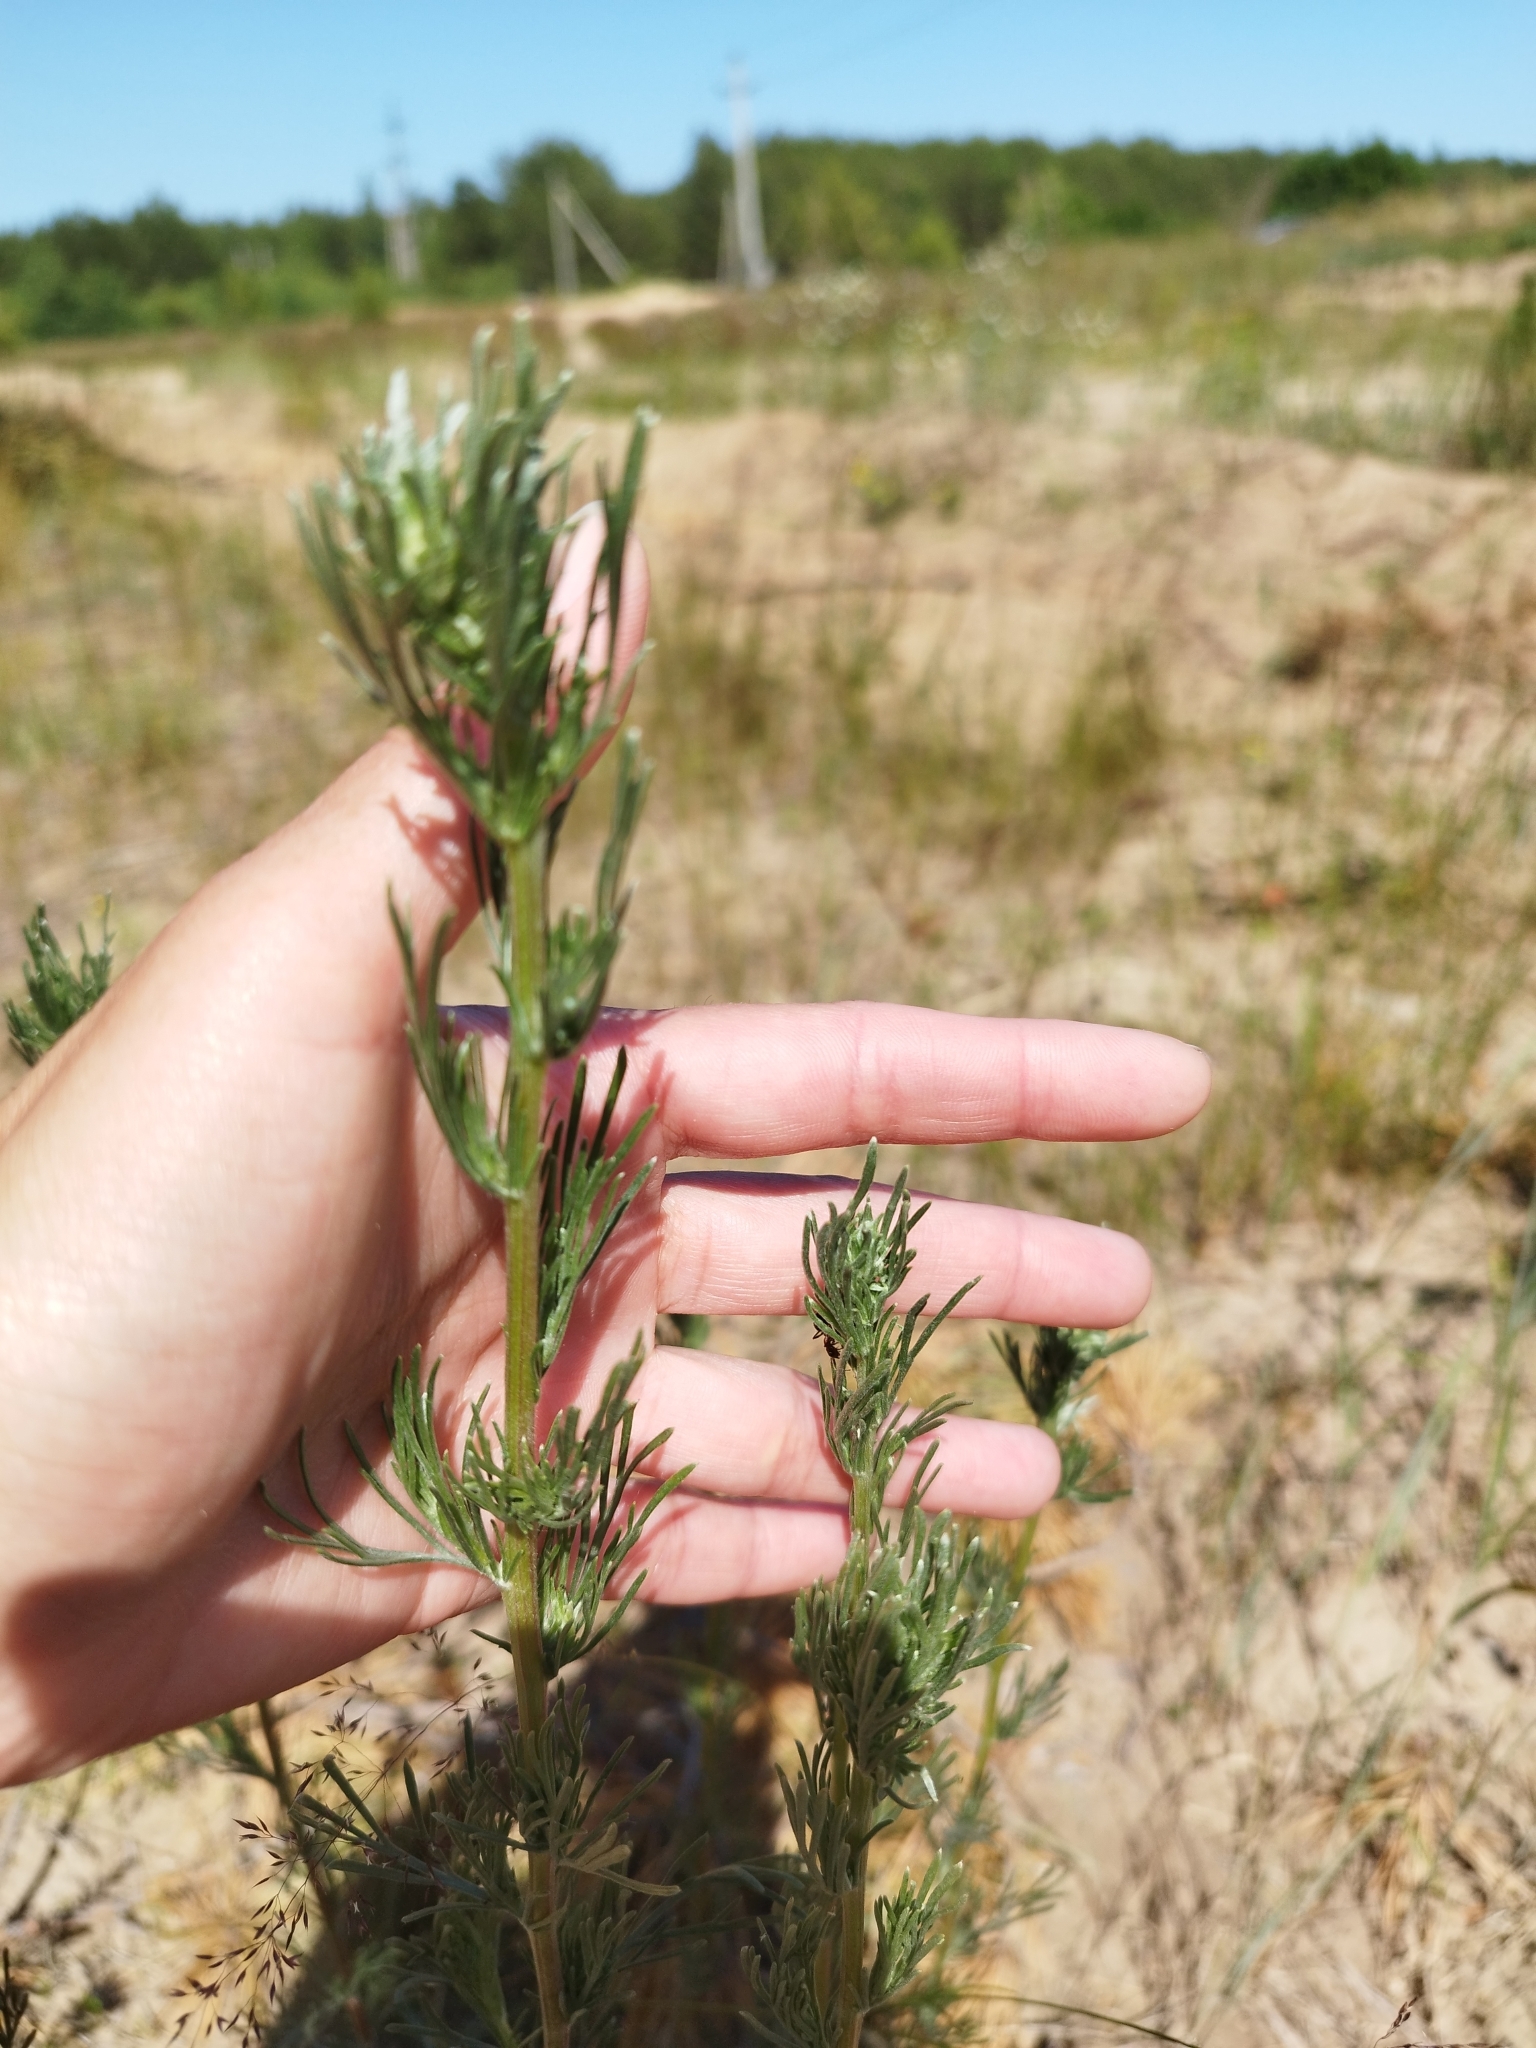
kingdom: Plantae
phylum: Tracheophyta
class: Magnoliopsida
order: Asterales
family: Asteraceae
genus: Artemisia
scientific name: Artemisia campestris
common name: Field wormwood
